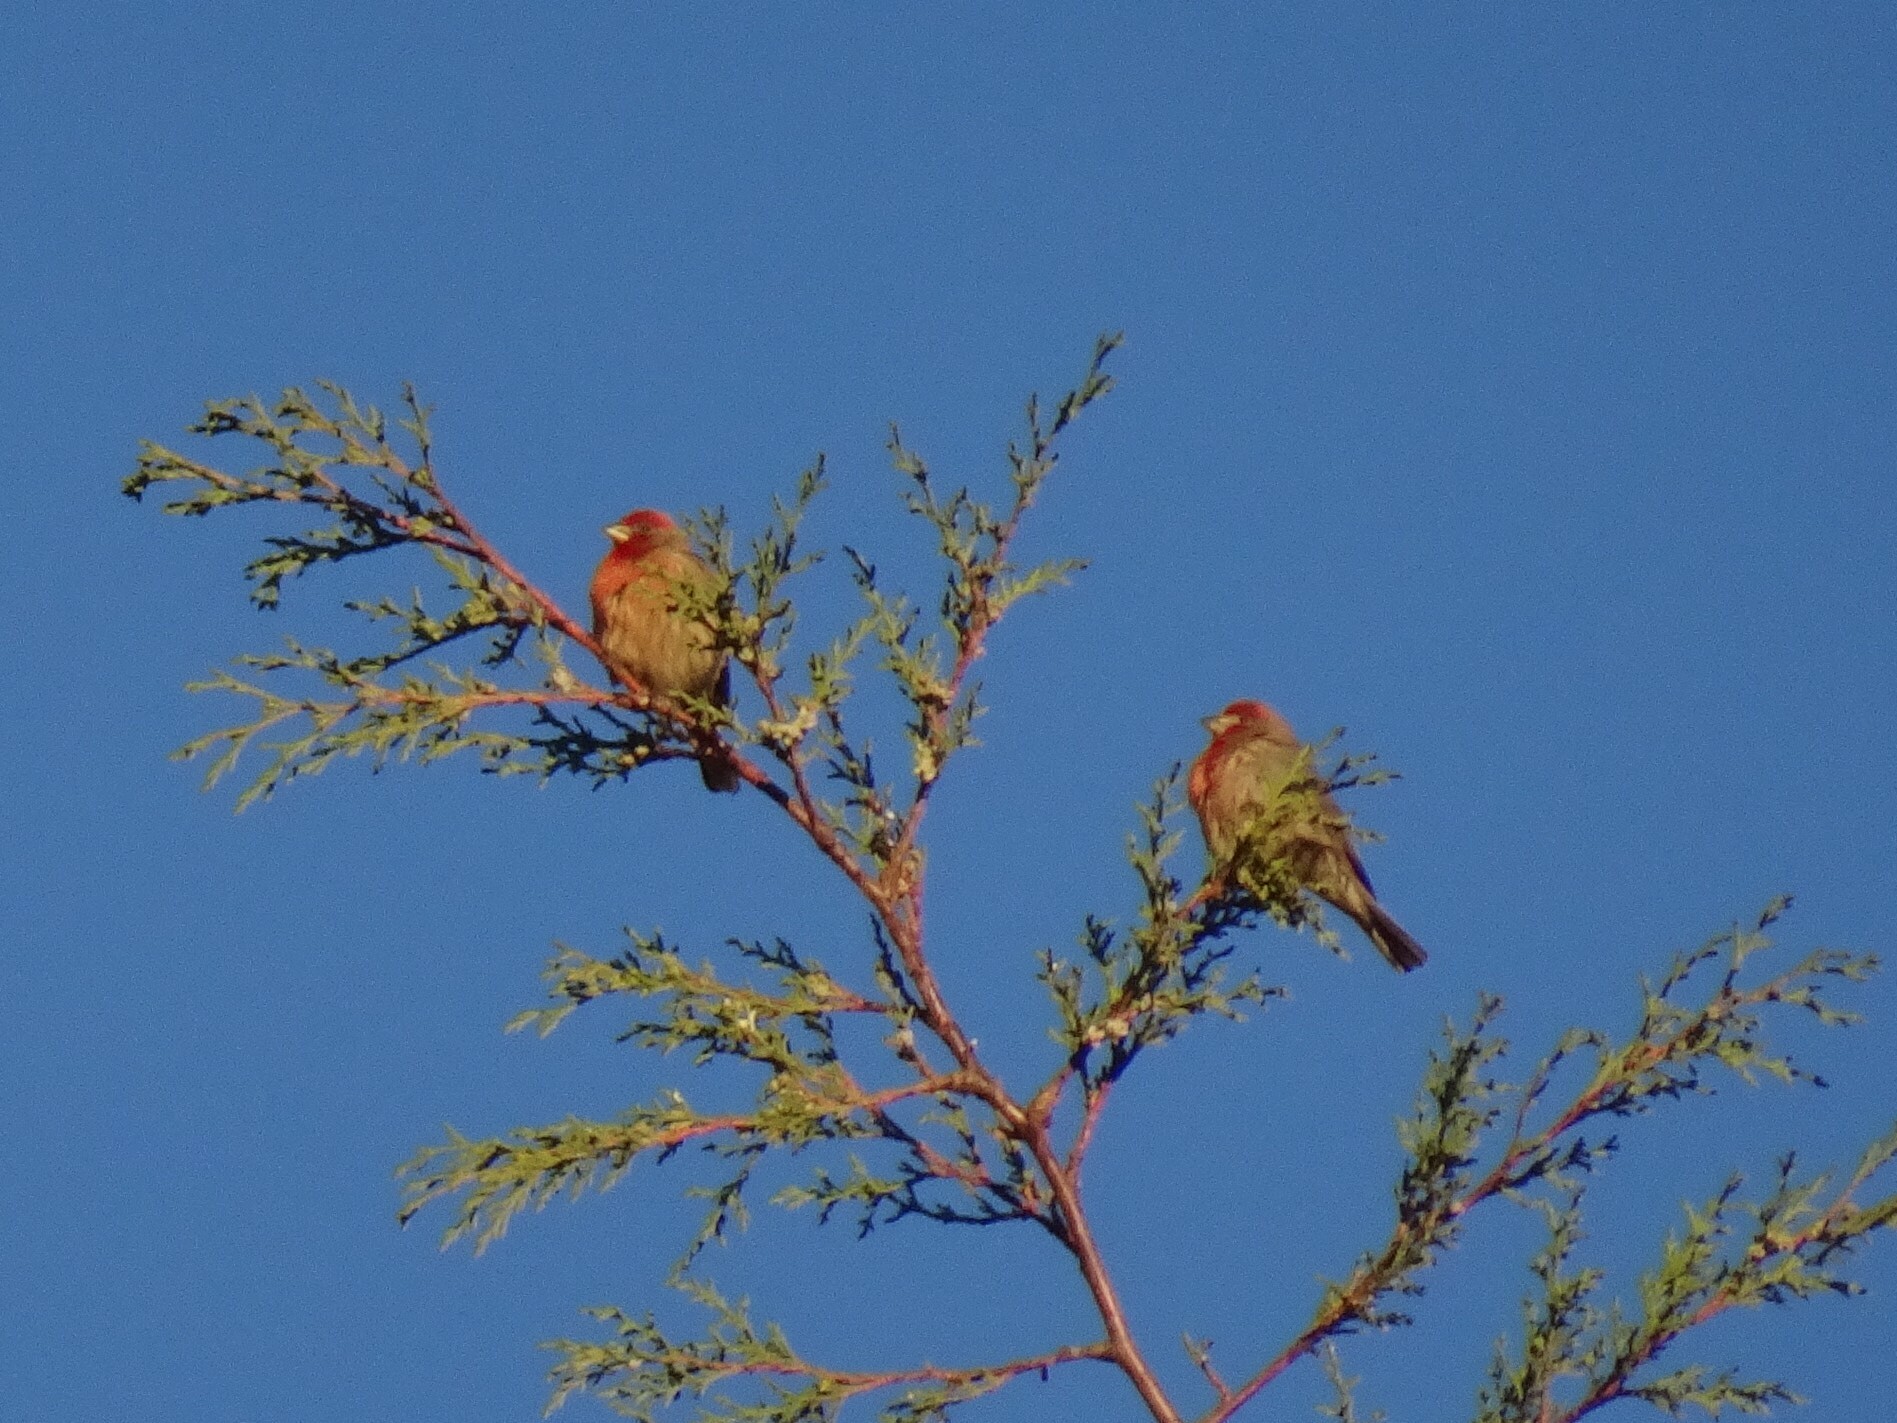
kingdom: Animalia
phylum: Chordata
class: Aves
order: Passeriformes
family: Fringillidae
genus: Haemorhous
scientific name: Haemorhous mexicanus
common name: House finch
